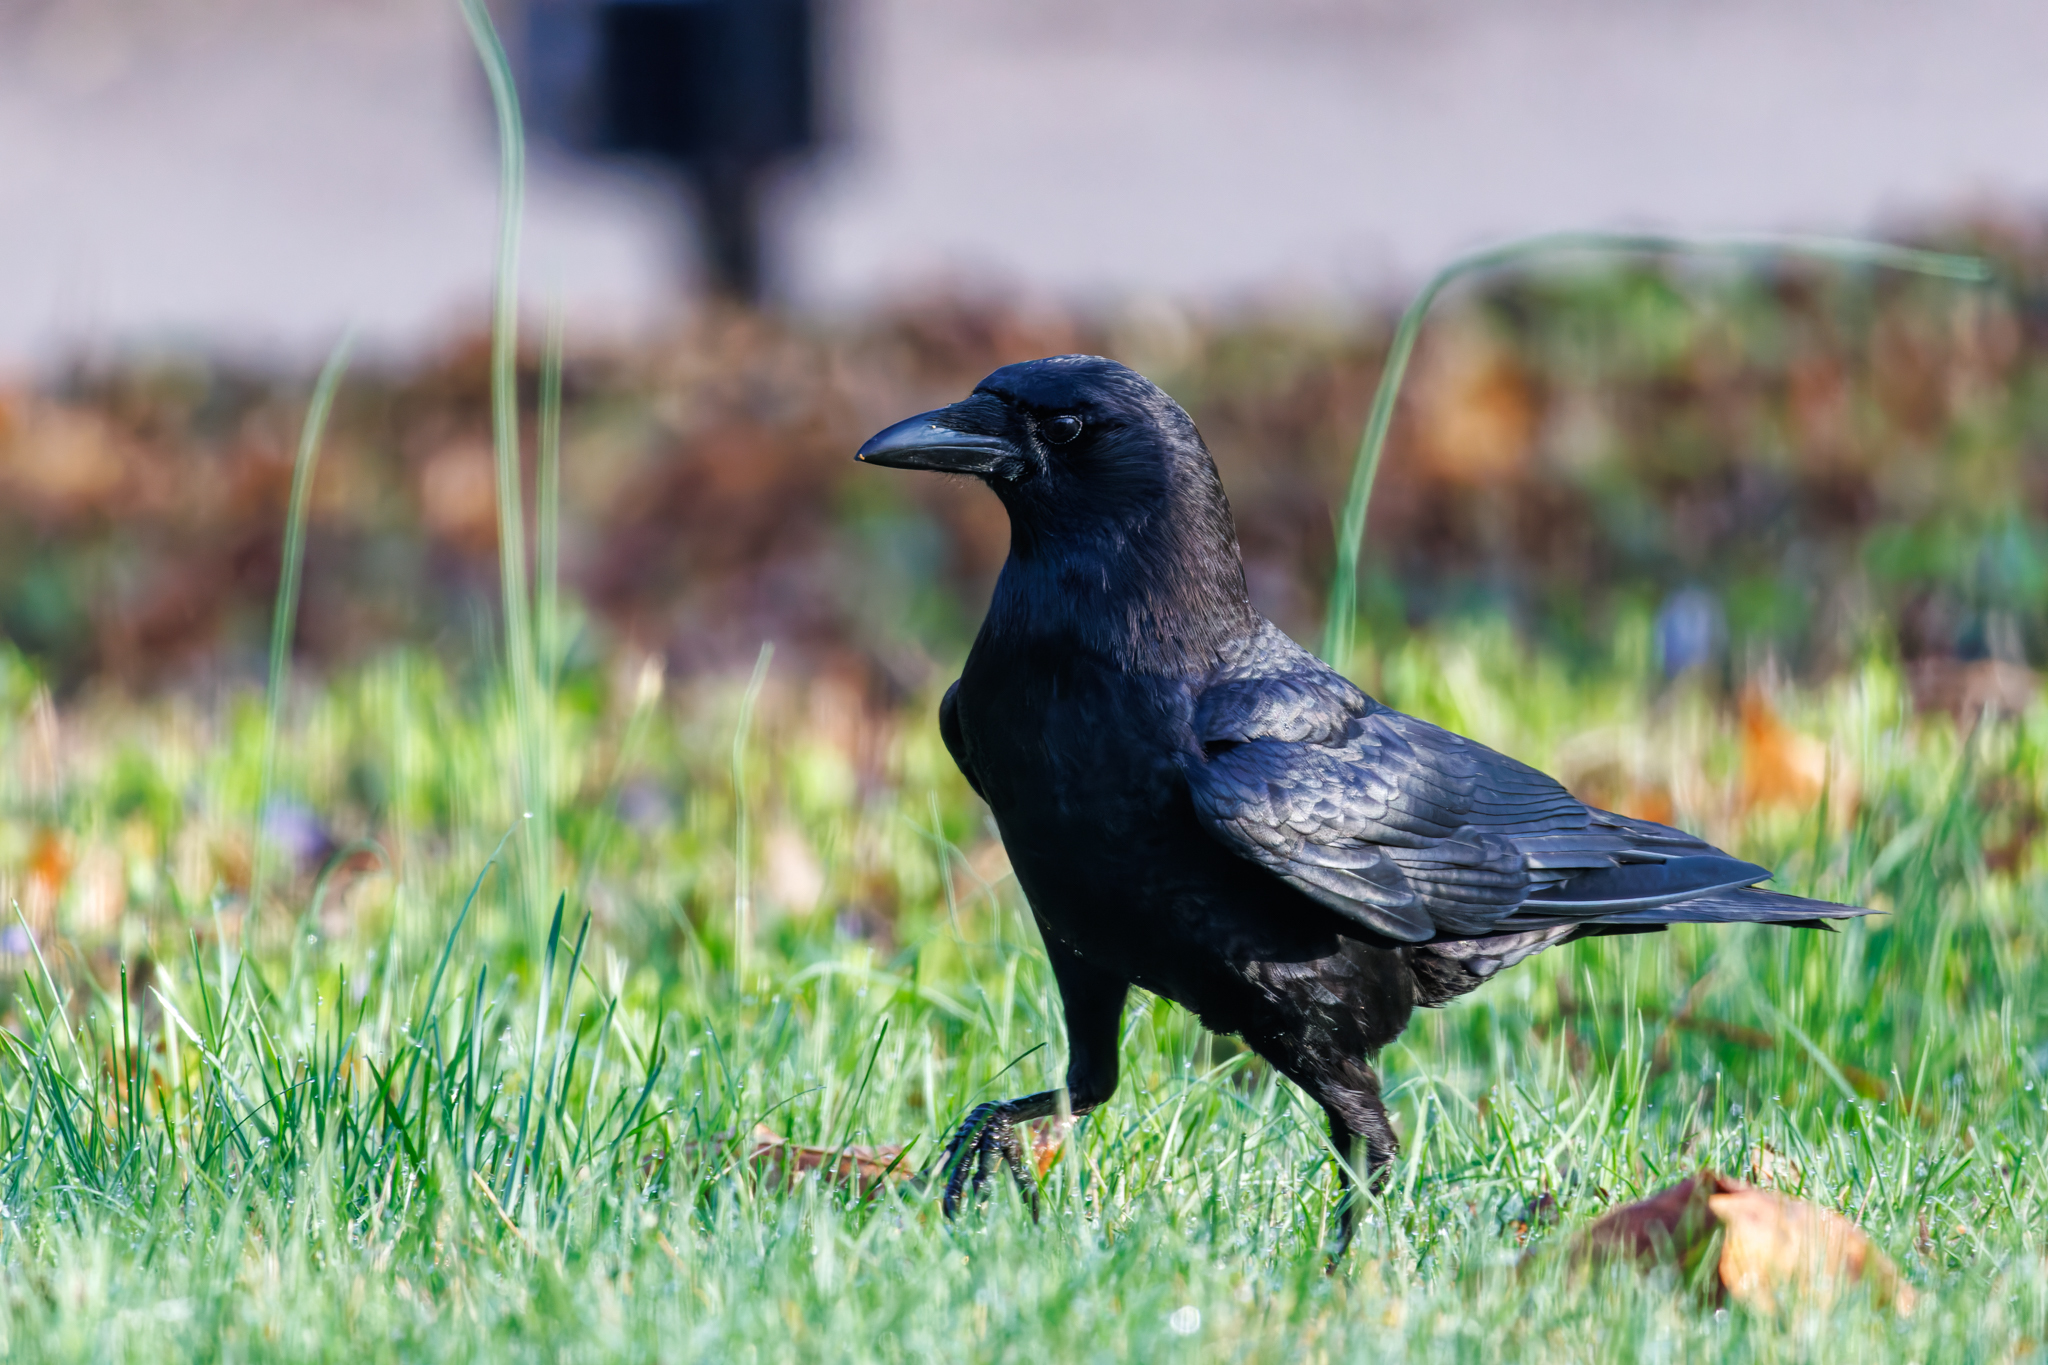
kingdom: Animalia
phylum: Chordata
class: Aves
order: Passeriformes
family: Corvidae
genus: Corvus
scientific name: Corvus brachyrhynchos
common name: American crow
